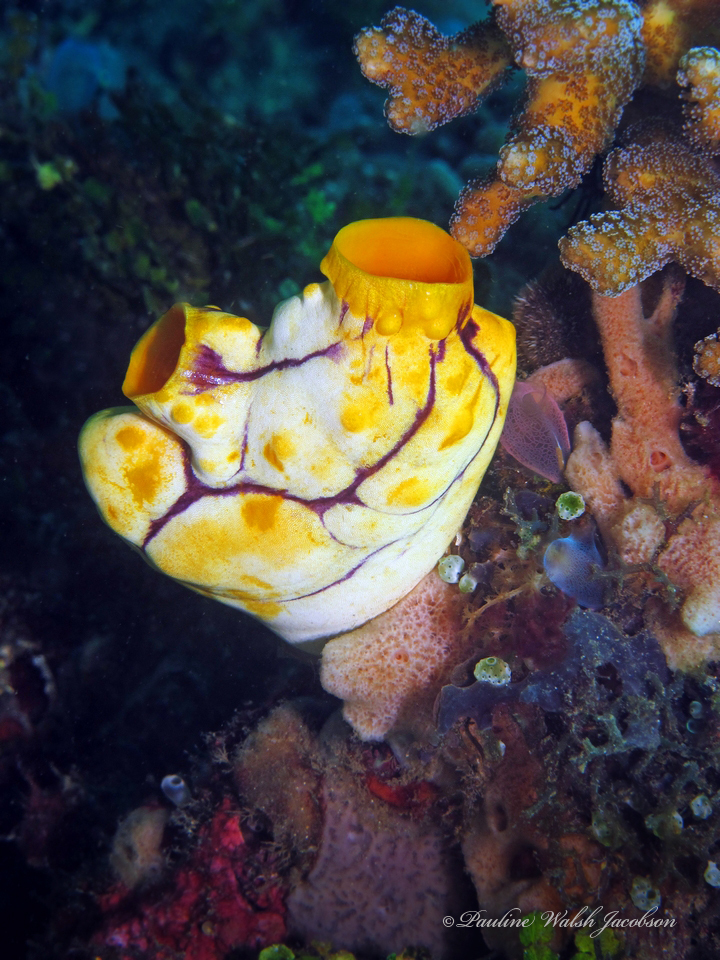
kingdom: Animalia
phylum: Chordata
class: Ascidiacea
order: Stolidobranchia
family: Styelidae
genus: Polycarpa
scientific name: Polycarpa aurata
